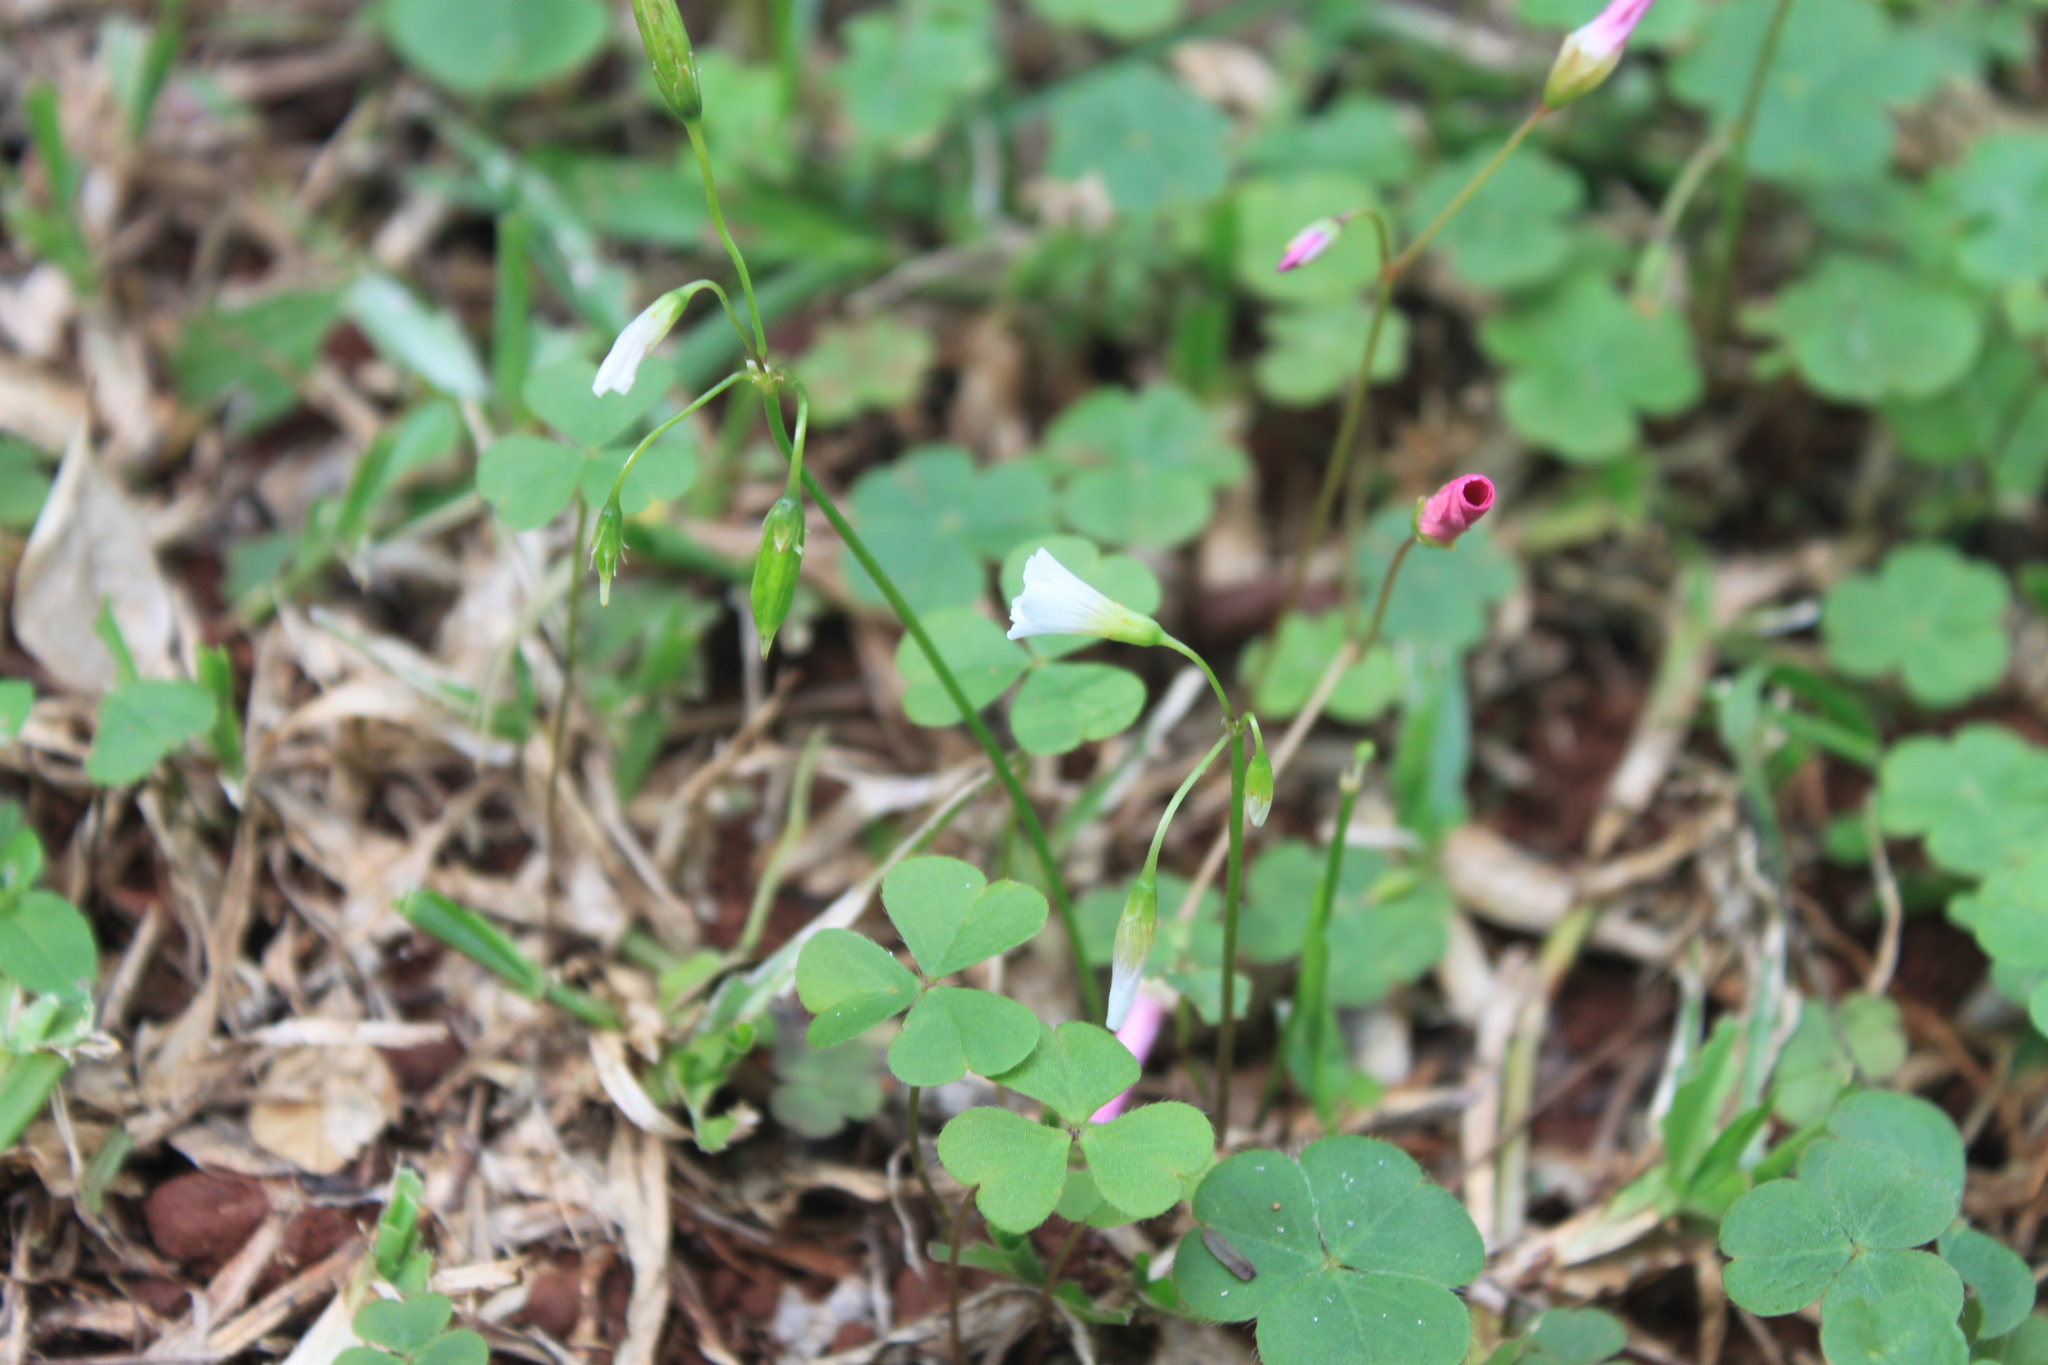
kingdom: Plantae
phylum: Tracheophyta
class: Magnoliopsida
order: Oxalidales
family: Oxalidaceae
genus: Oxalis
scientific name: Oxalis hispidula
